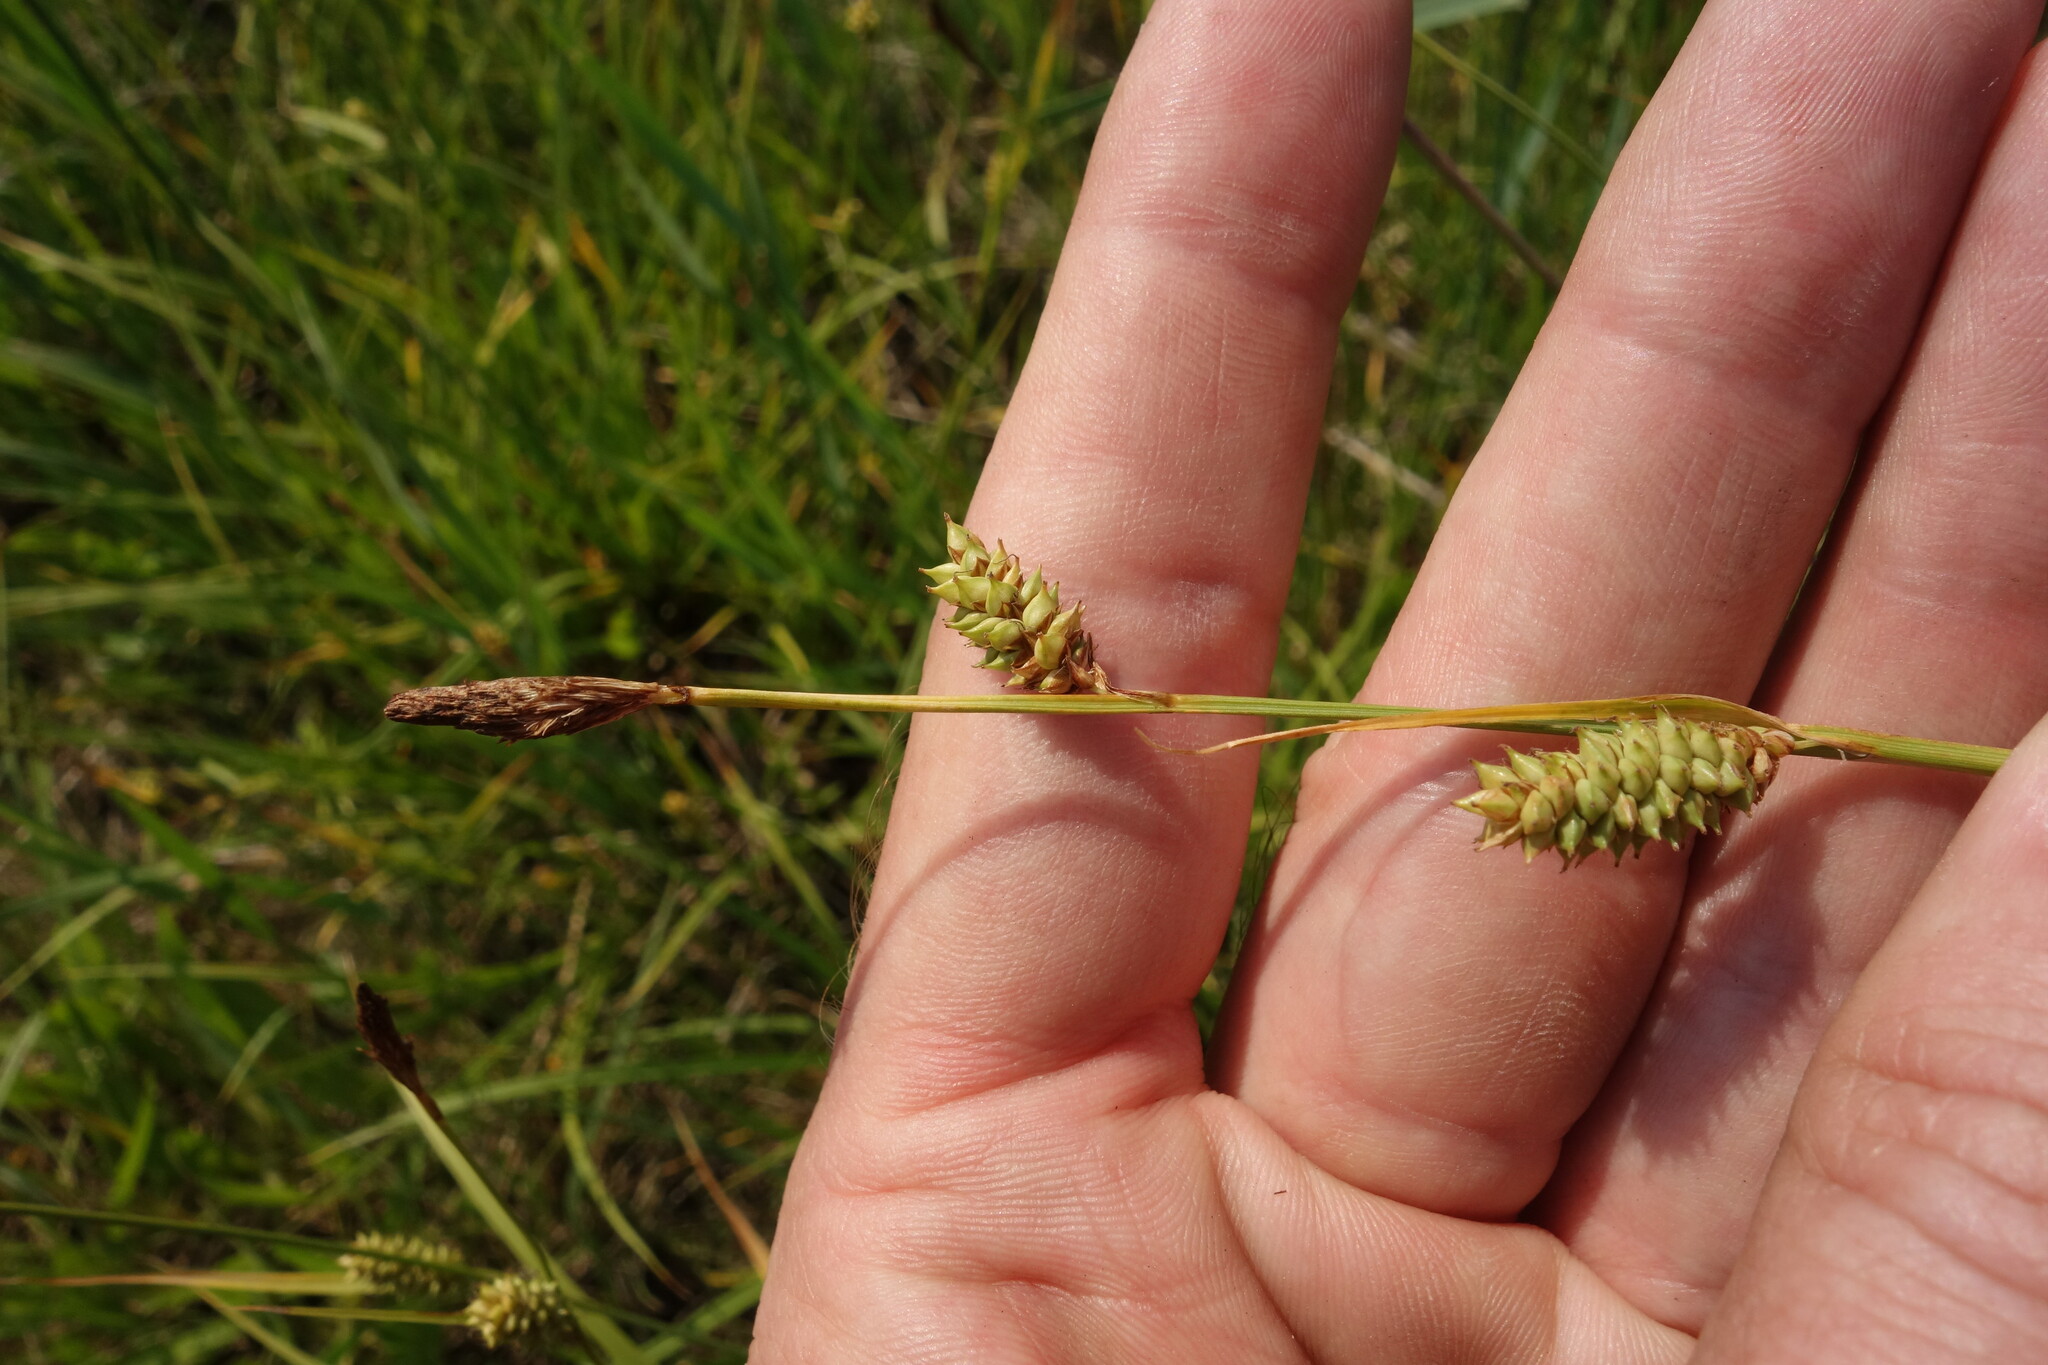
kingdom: Plantae
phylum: Tracheophyta
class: Liliopsida
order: Poales
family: Cyperaceae
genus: Carex
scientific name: Carex distans
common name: Distant sedge
